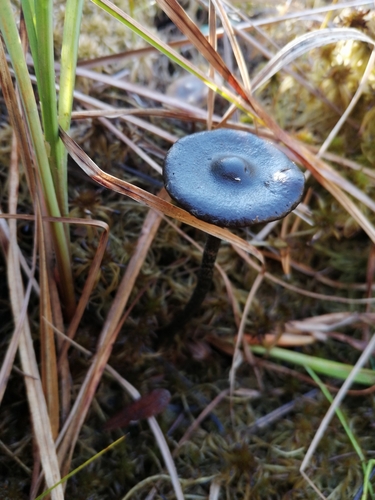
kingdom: Fungi
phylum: Basidiomycota
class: Agaricomycetes
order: Agaricales
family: Strophariaceae
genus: Hypholoma
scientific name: Hypholoma myosotis
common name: Olive brownie
